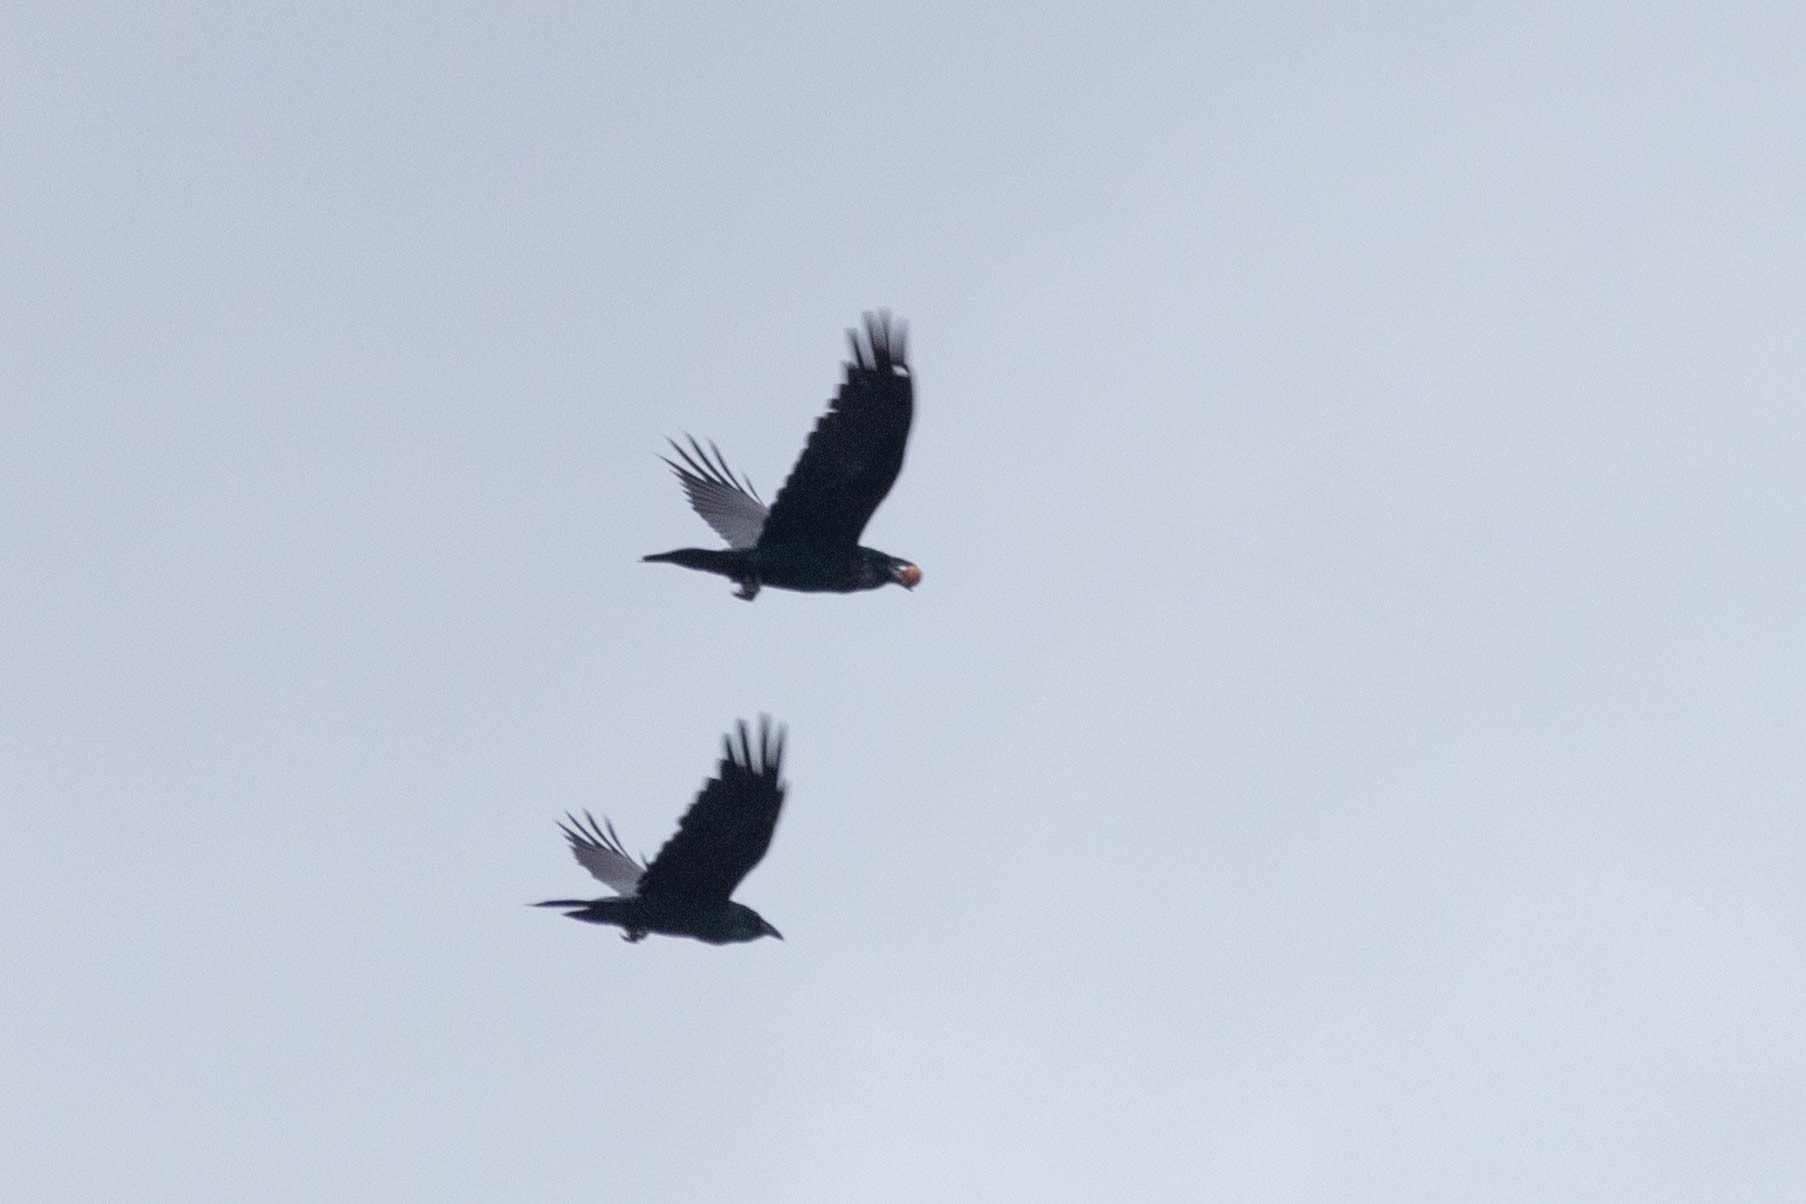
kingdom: Animalia
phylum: Chordata
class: Aves
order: Passeriformes
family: Corvidae
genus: Corvus
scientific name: Corvus corax
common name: Common raven
